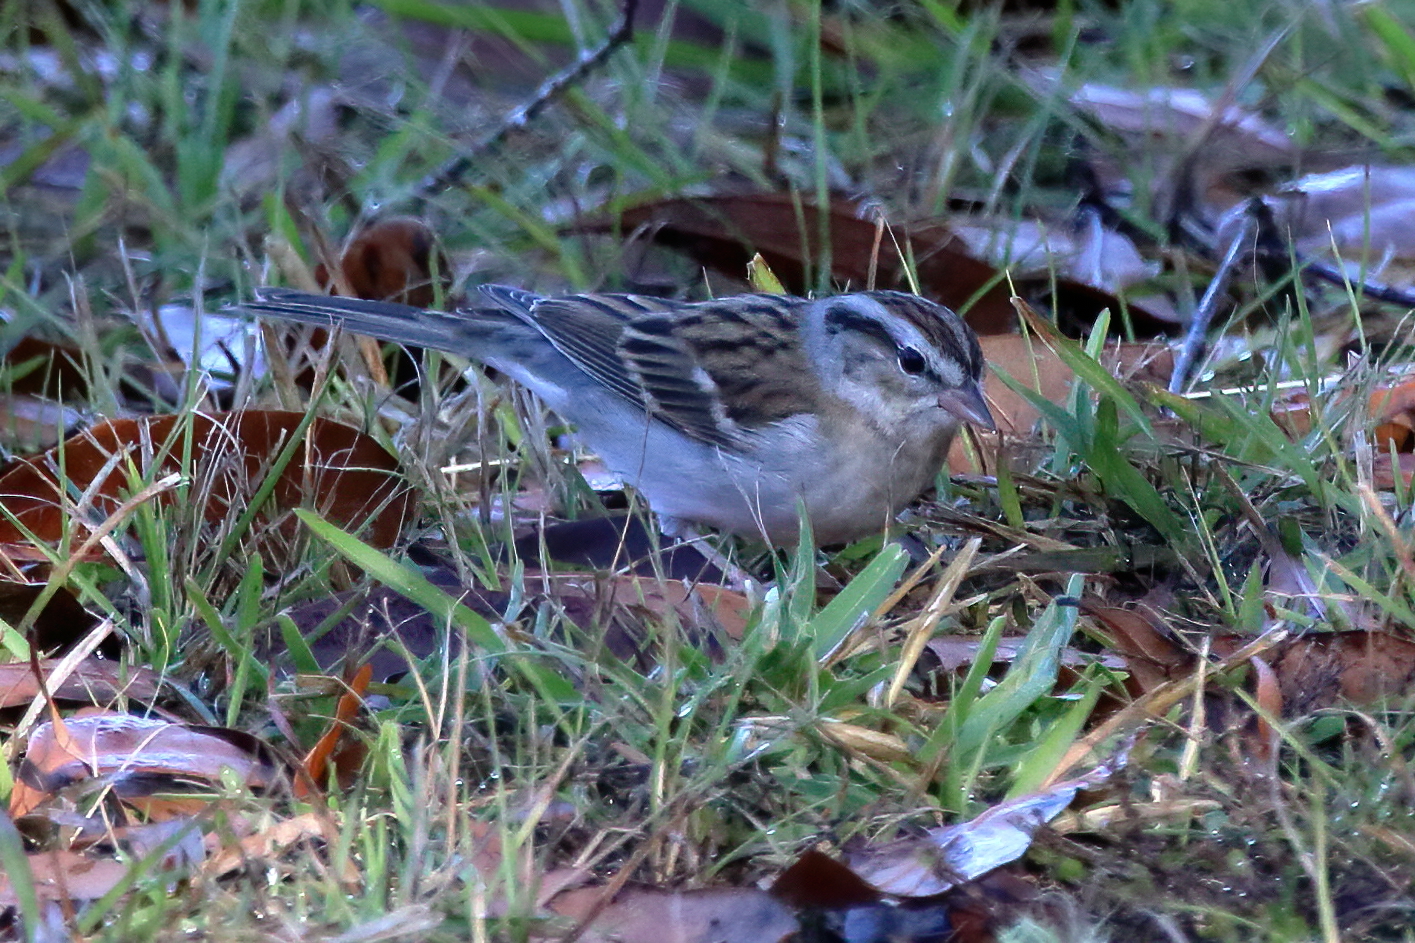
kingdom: Animalia
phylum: Chordata
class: Aves
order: Passeriformes
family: Passerellidae
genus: Spizella
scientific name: Spizella passerina
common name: Chipping sparrow
